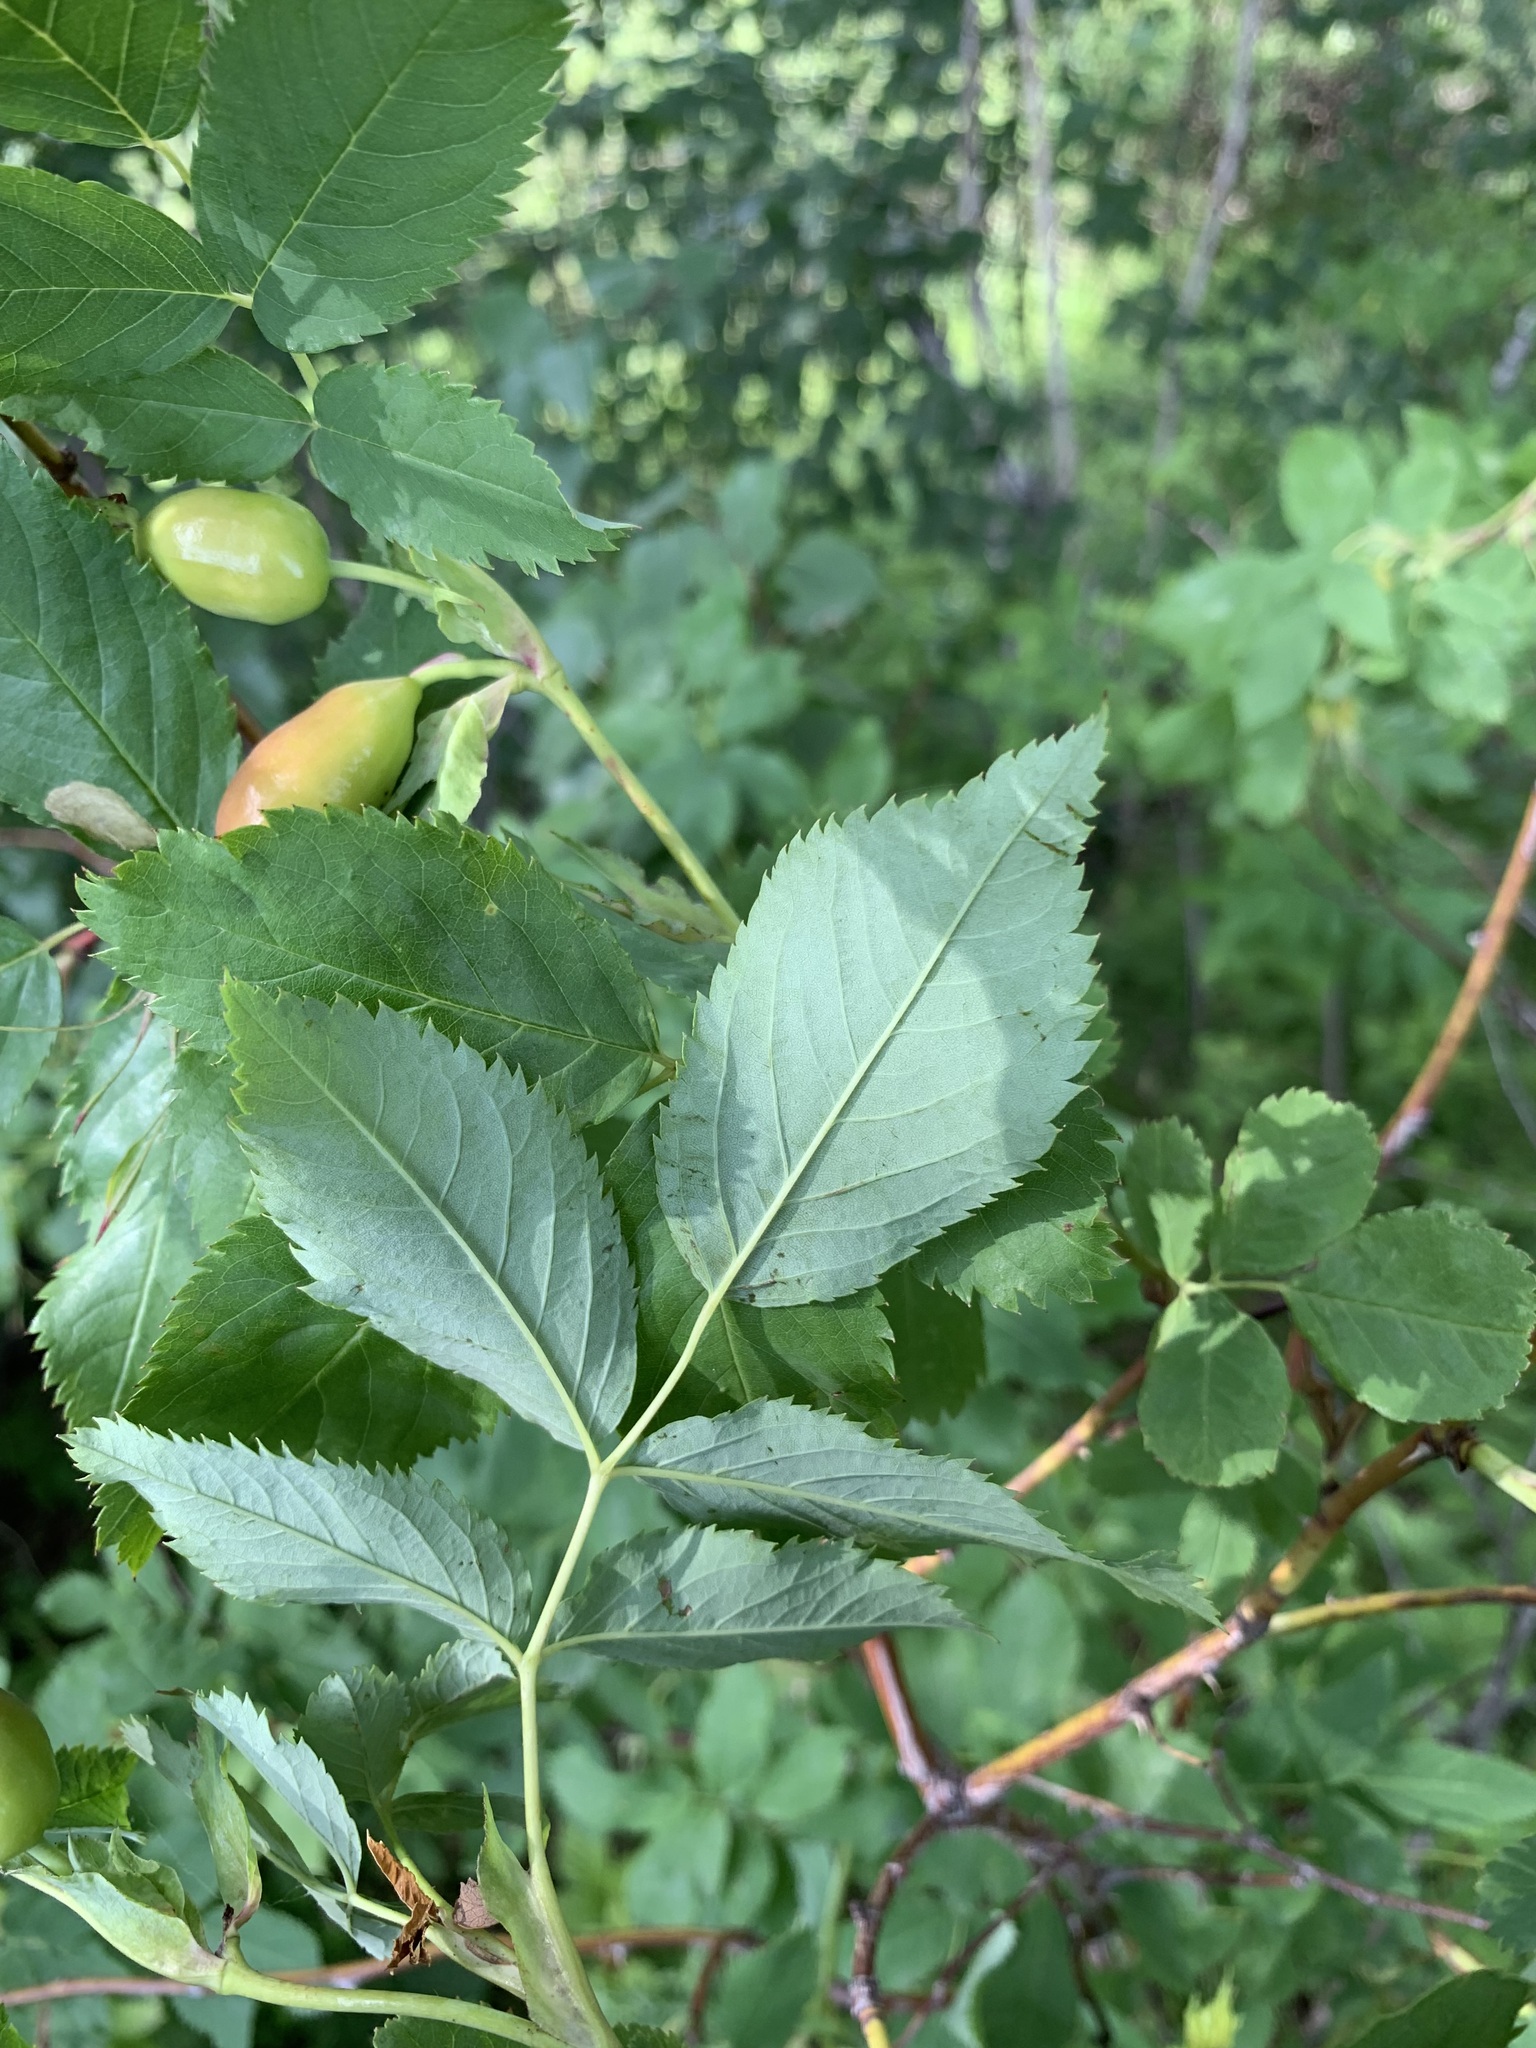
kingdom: Plantae
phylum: Tracheophyta
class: Magnoliopsida
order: Rosales
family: Rosaceae
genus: Rosa
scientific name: Rosa glabrifolia
